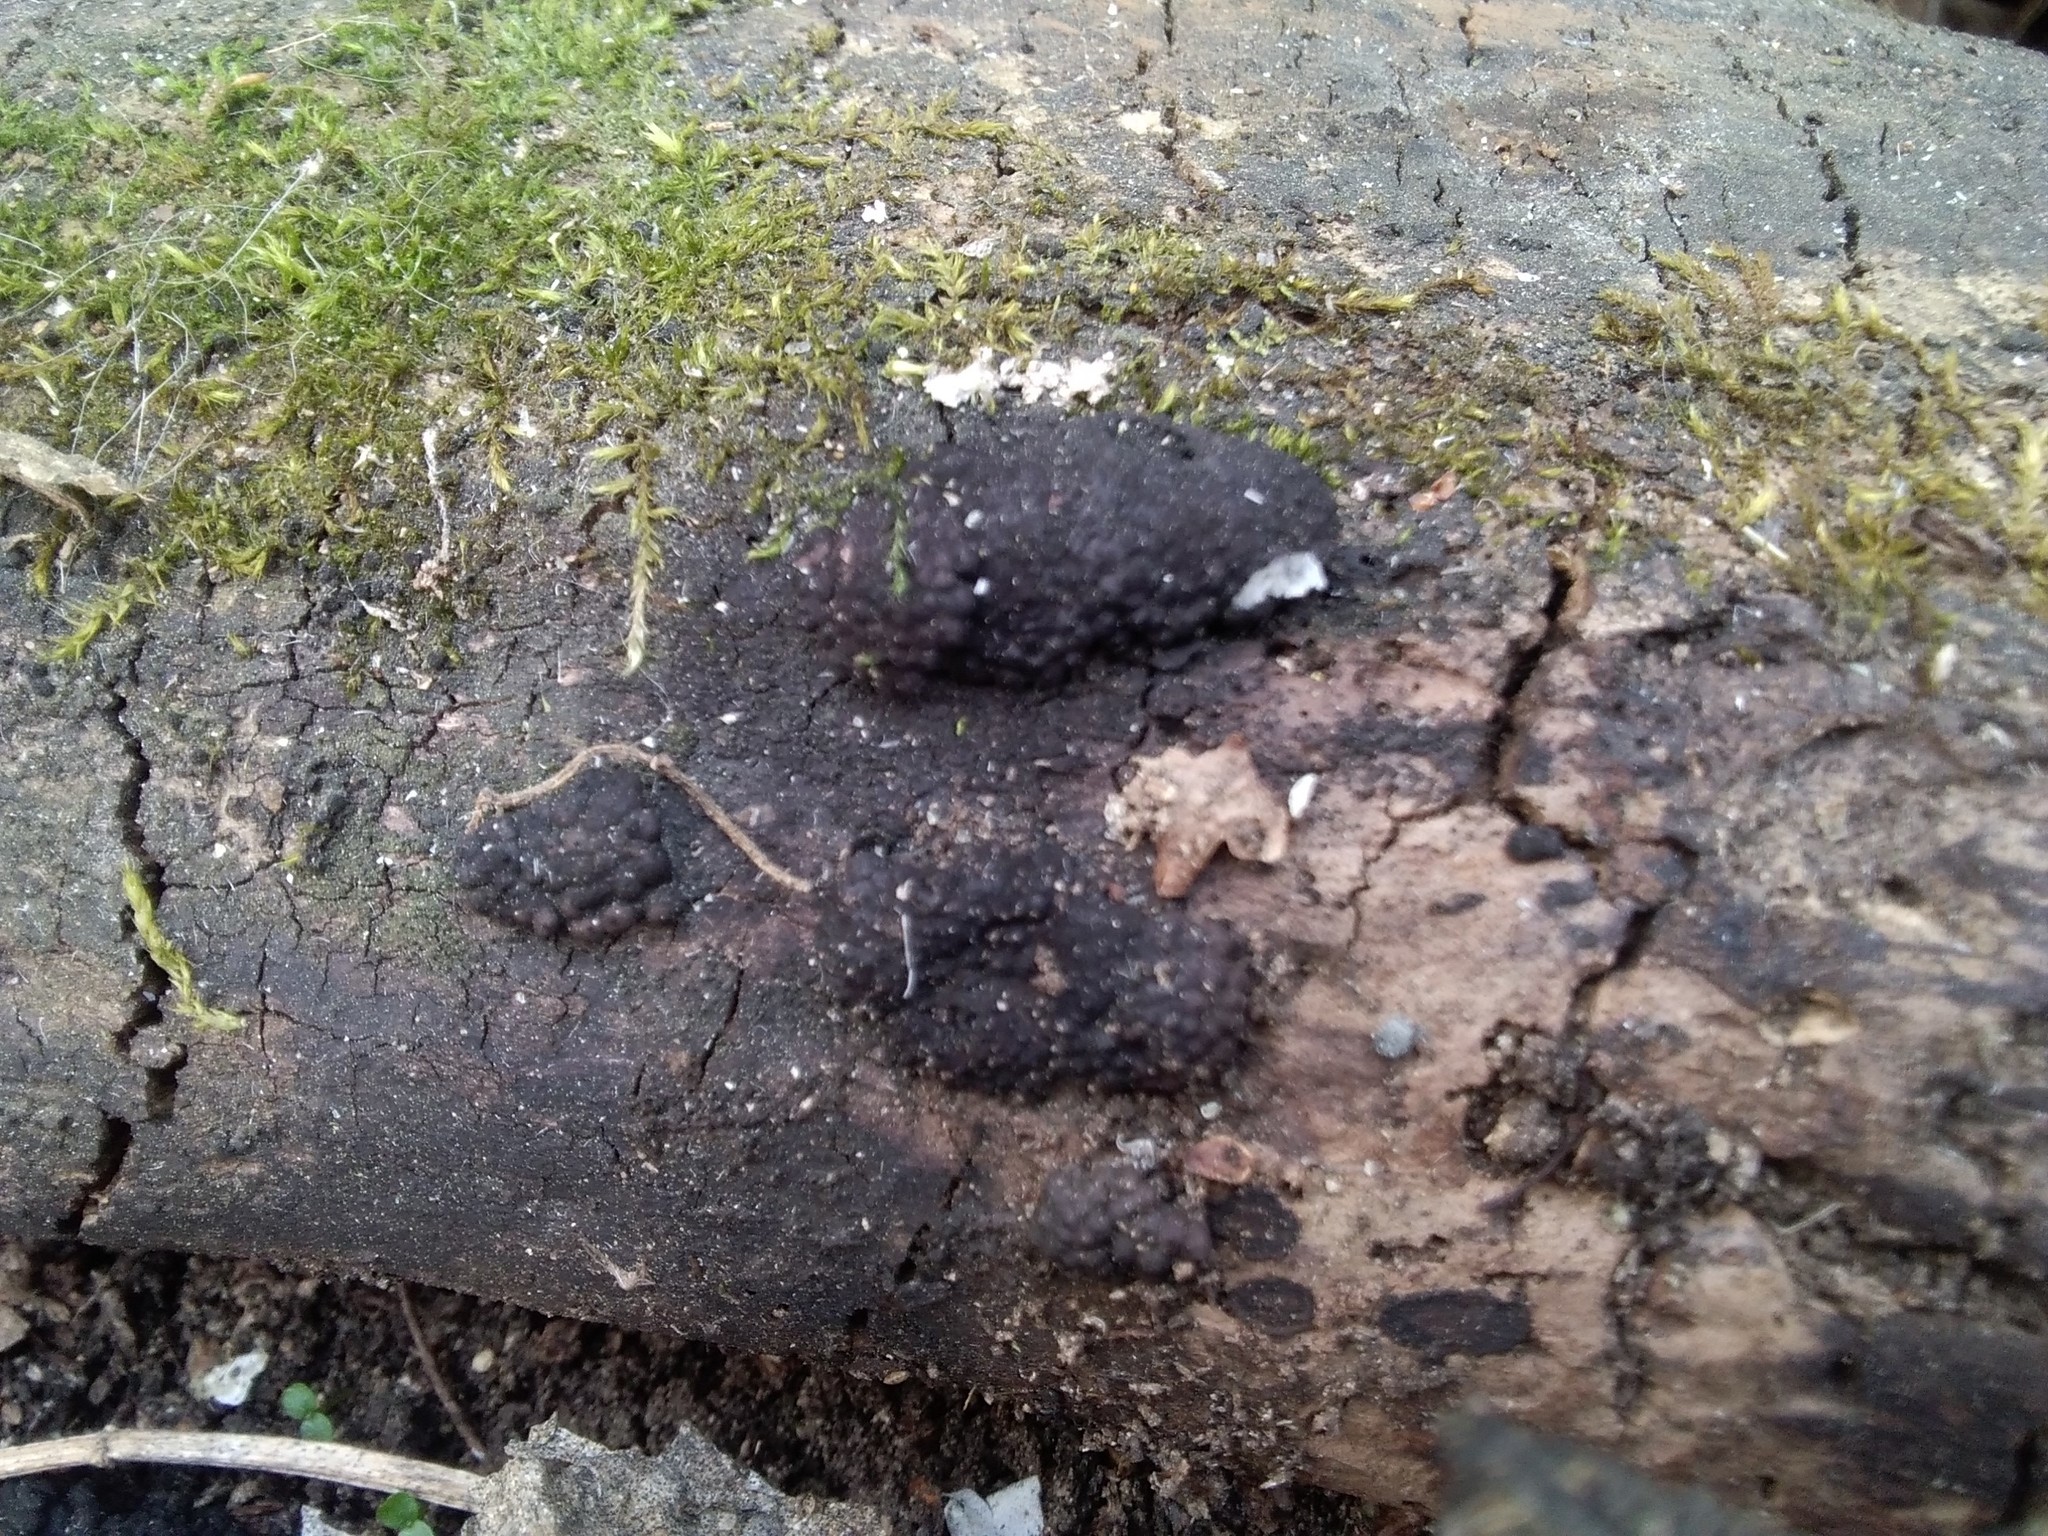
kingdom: Fungi
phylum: Ascomycota
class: Sordariomycetes
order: Xylariales
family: Hypoxylaceae
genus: Jackrogersella
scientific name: Jackrogersella multiformis
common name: Birch woodwart
